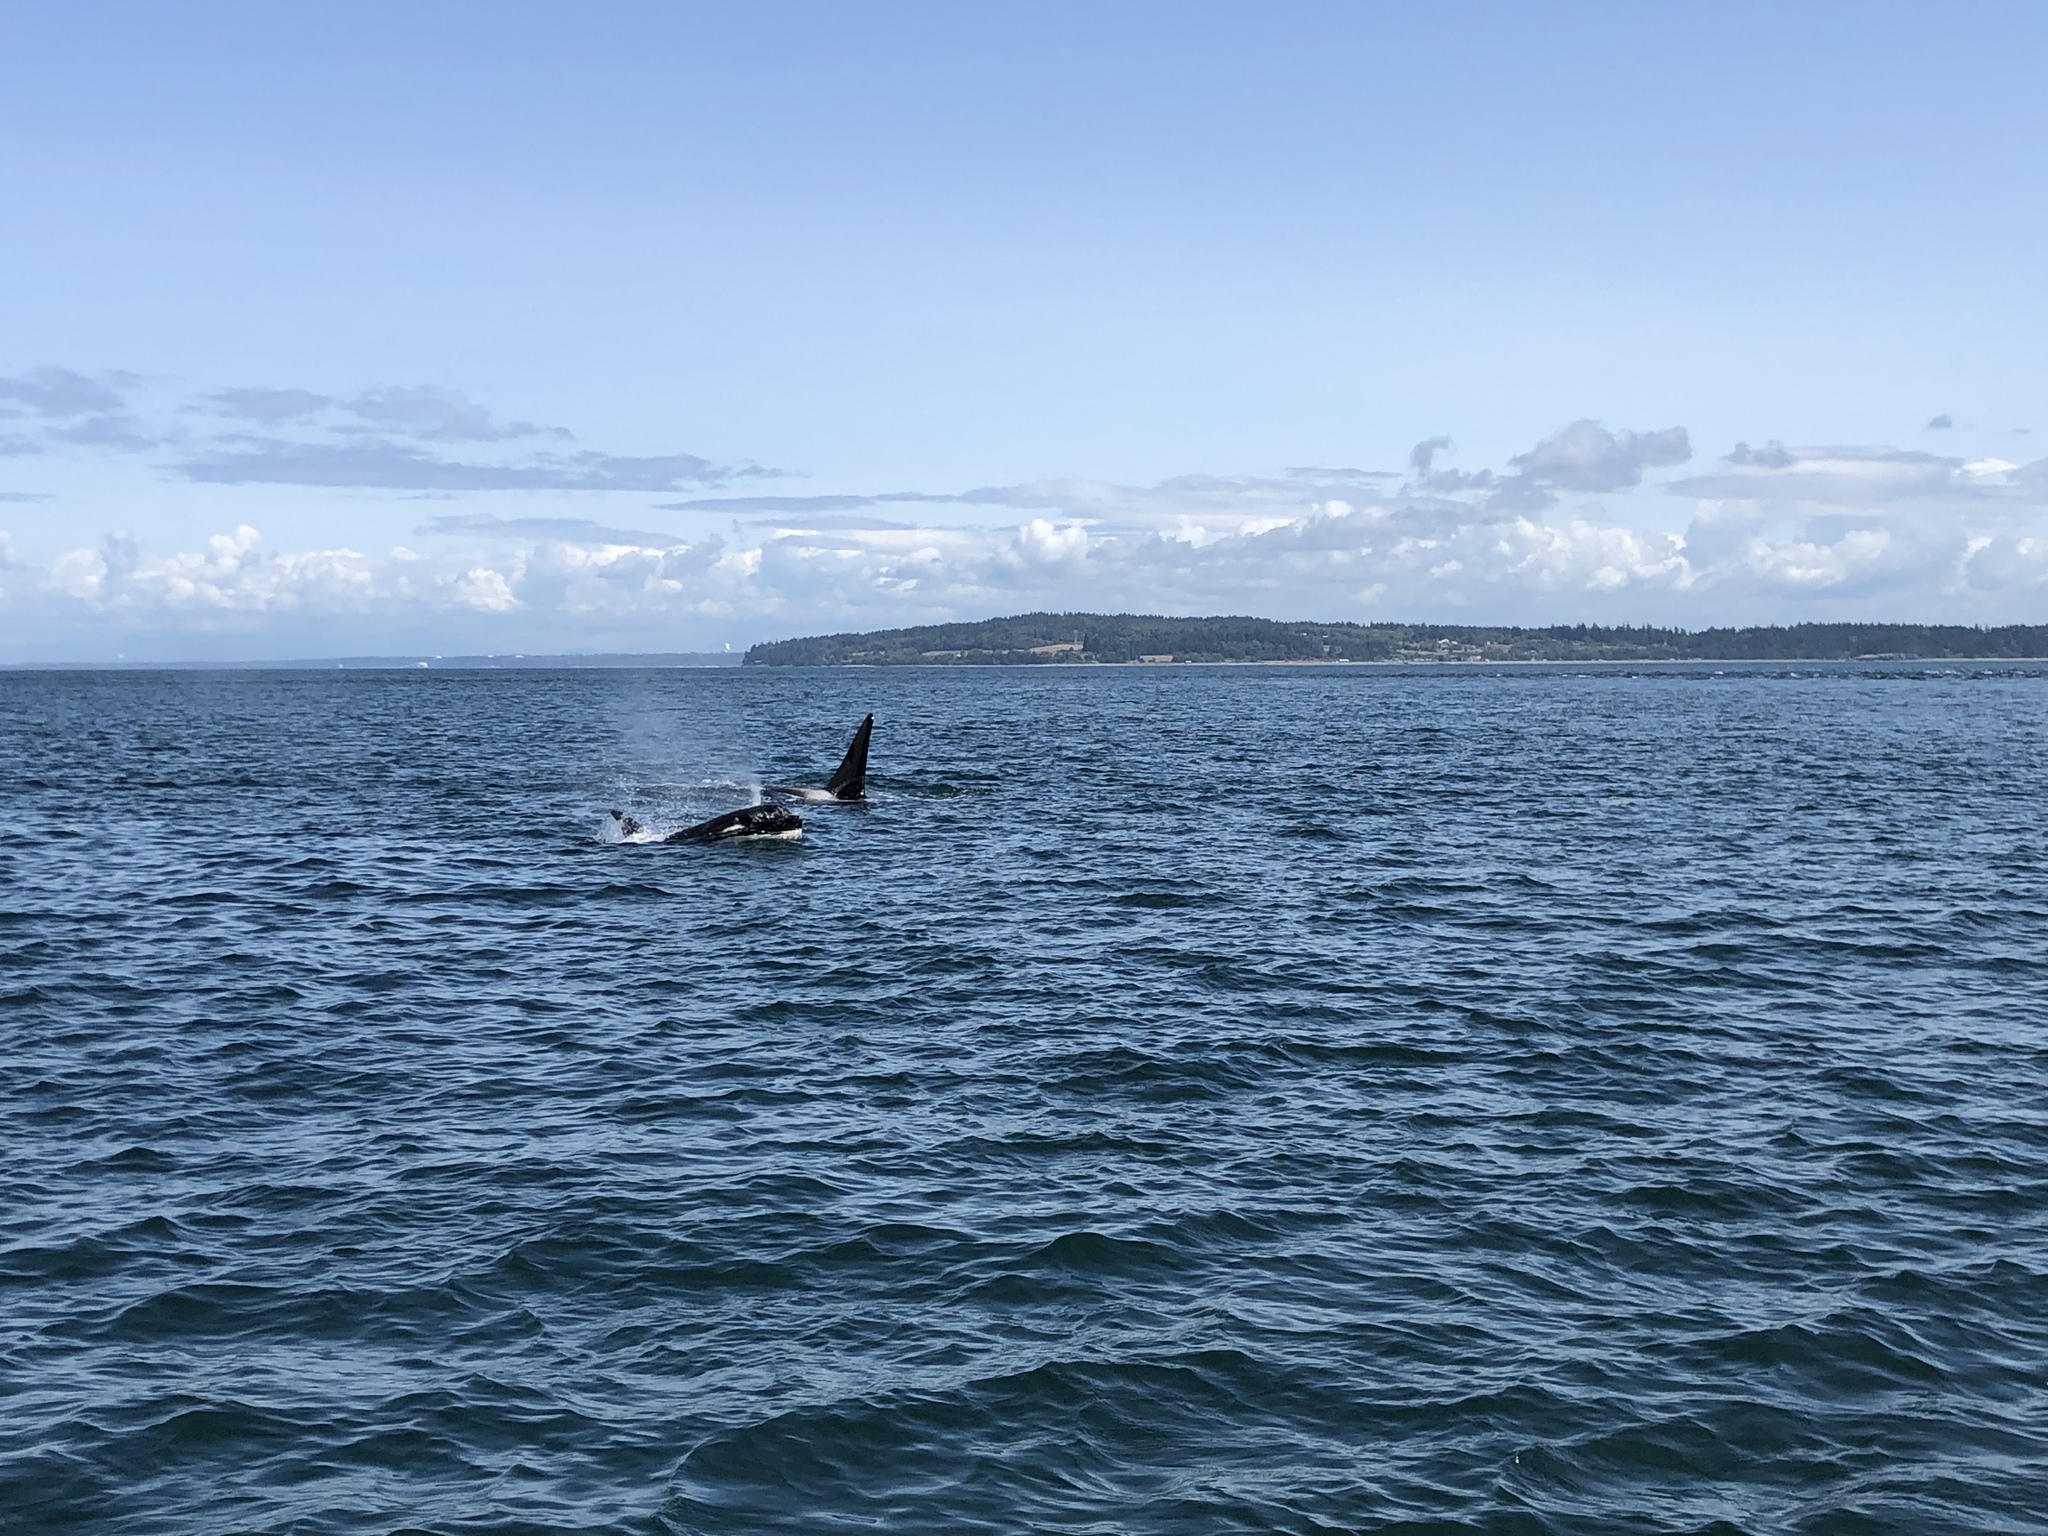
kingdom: Animalia
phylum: Chordata
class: Mammalia
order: Cetacea
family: Delphinidae
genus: Orcinus
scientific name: Orcinus orca
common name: Killer whale
